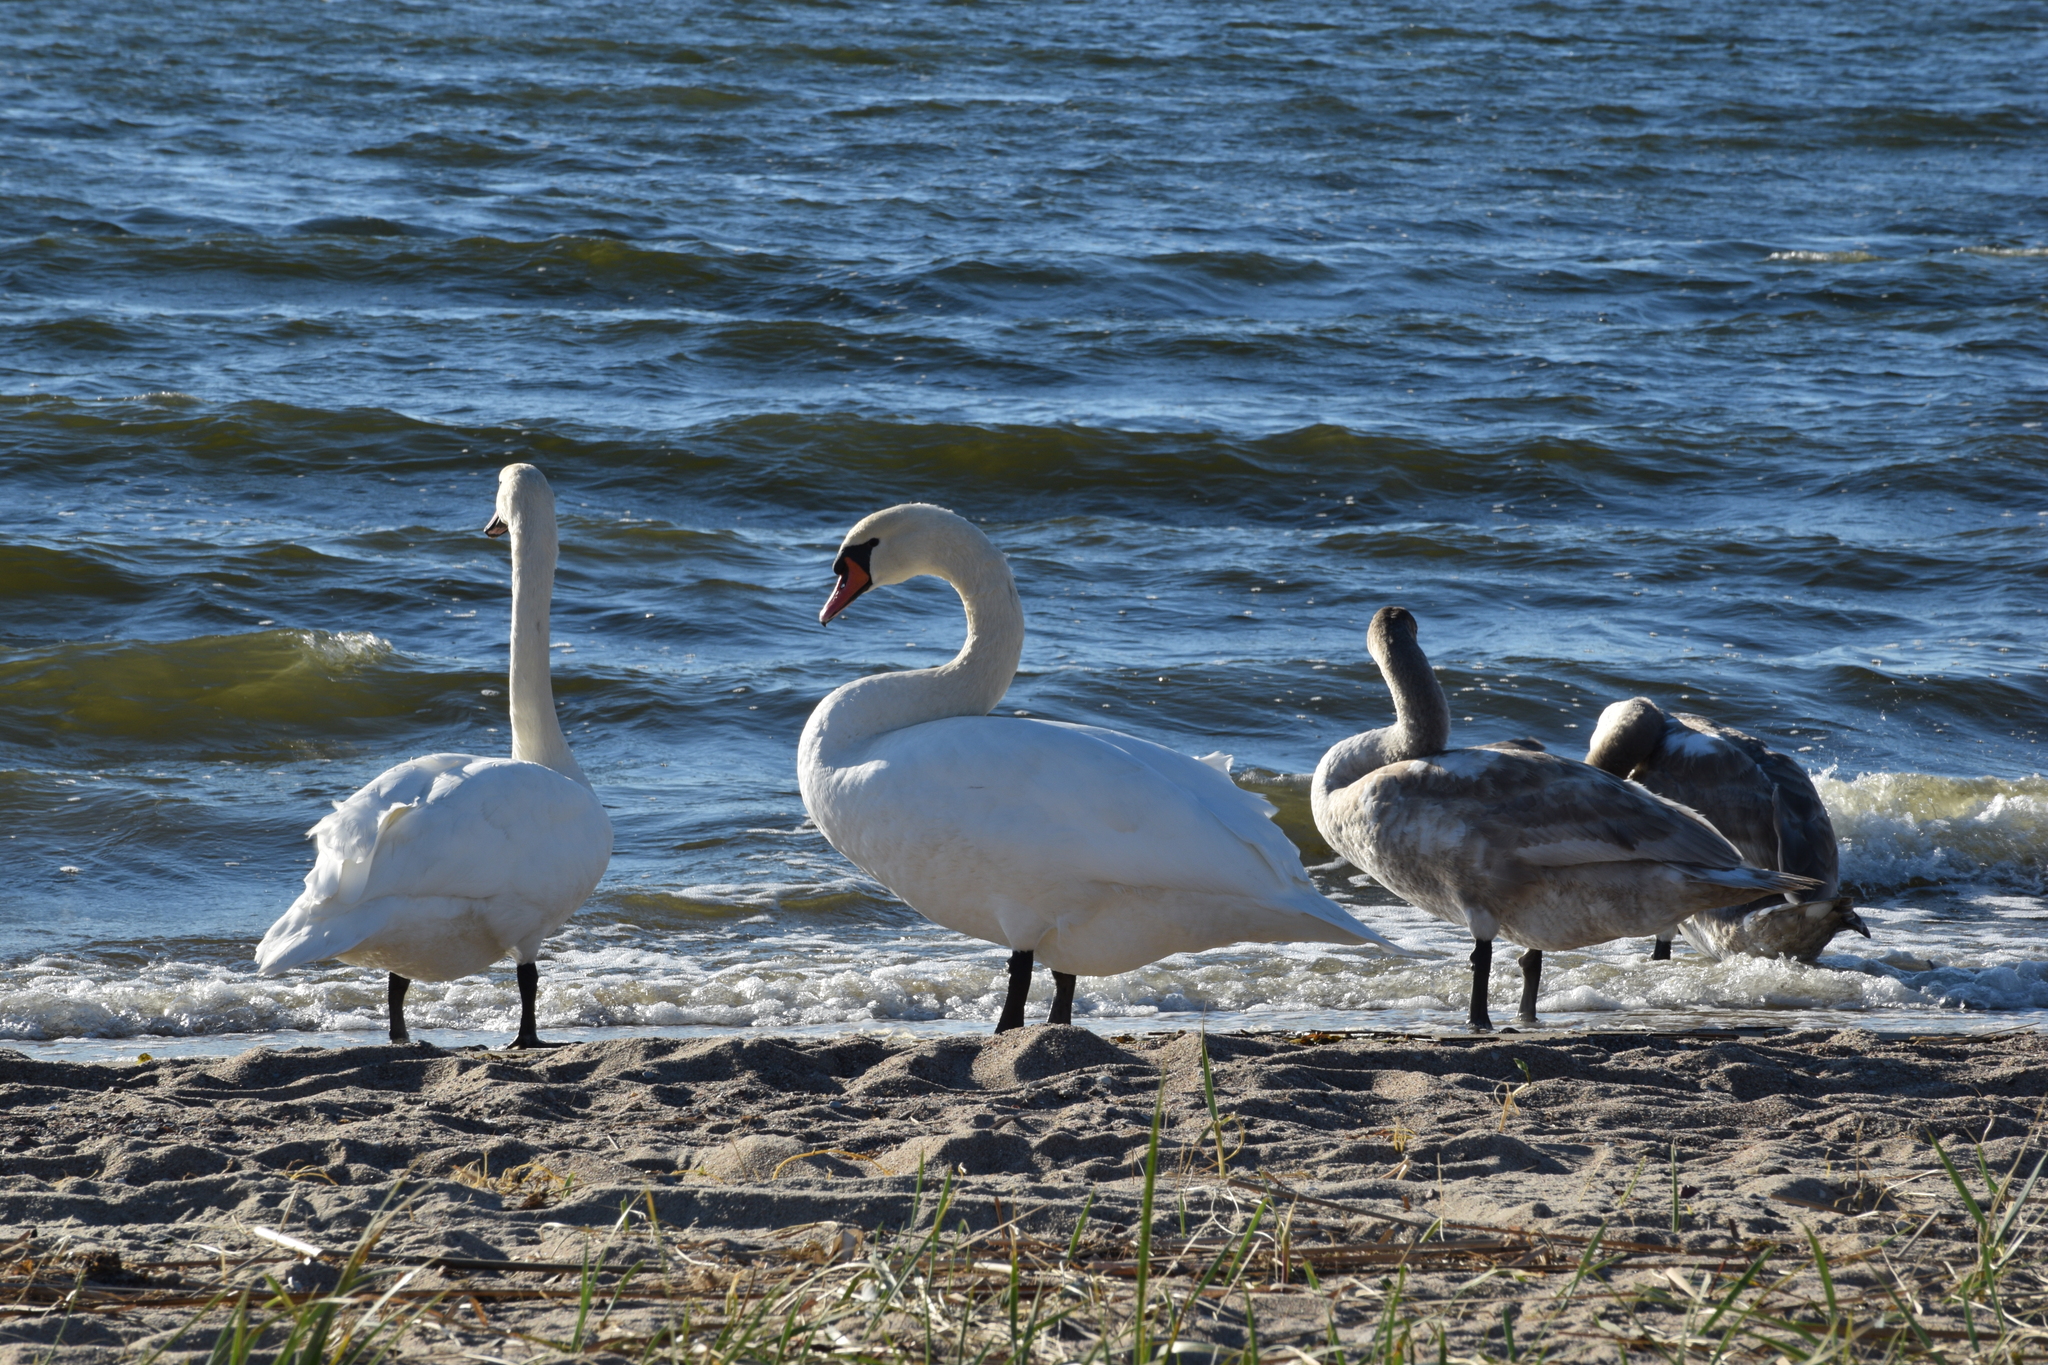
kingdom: Animalia
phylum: Chordata
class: Aves
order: Anseriformes
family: Anatidae
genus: Cygnus
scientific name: Cygnus olor
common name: Mute swan
